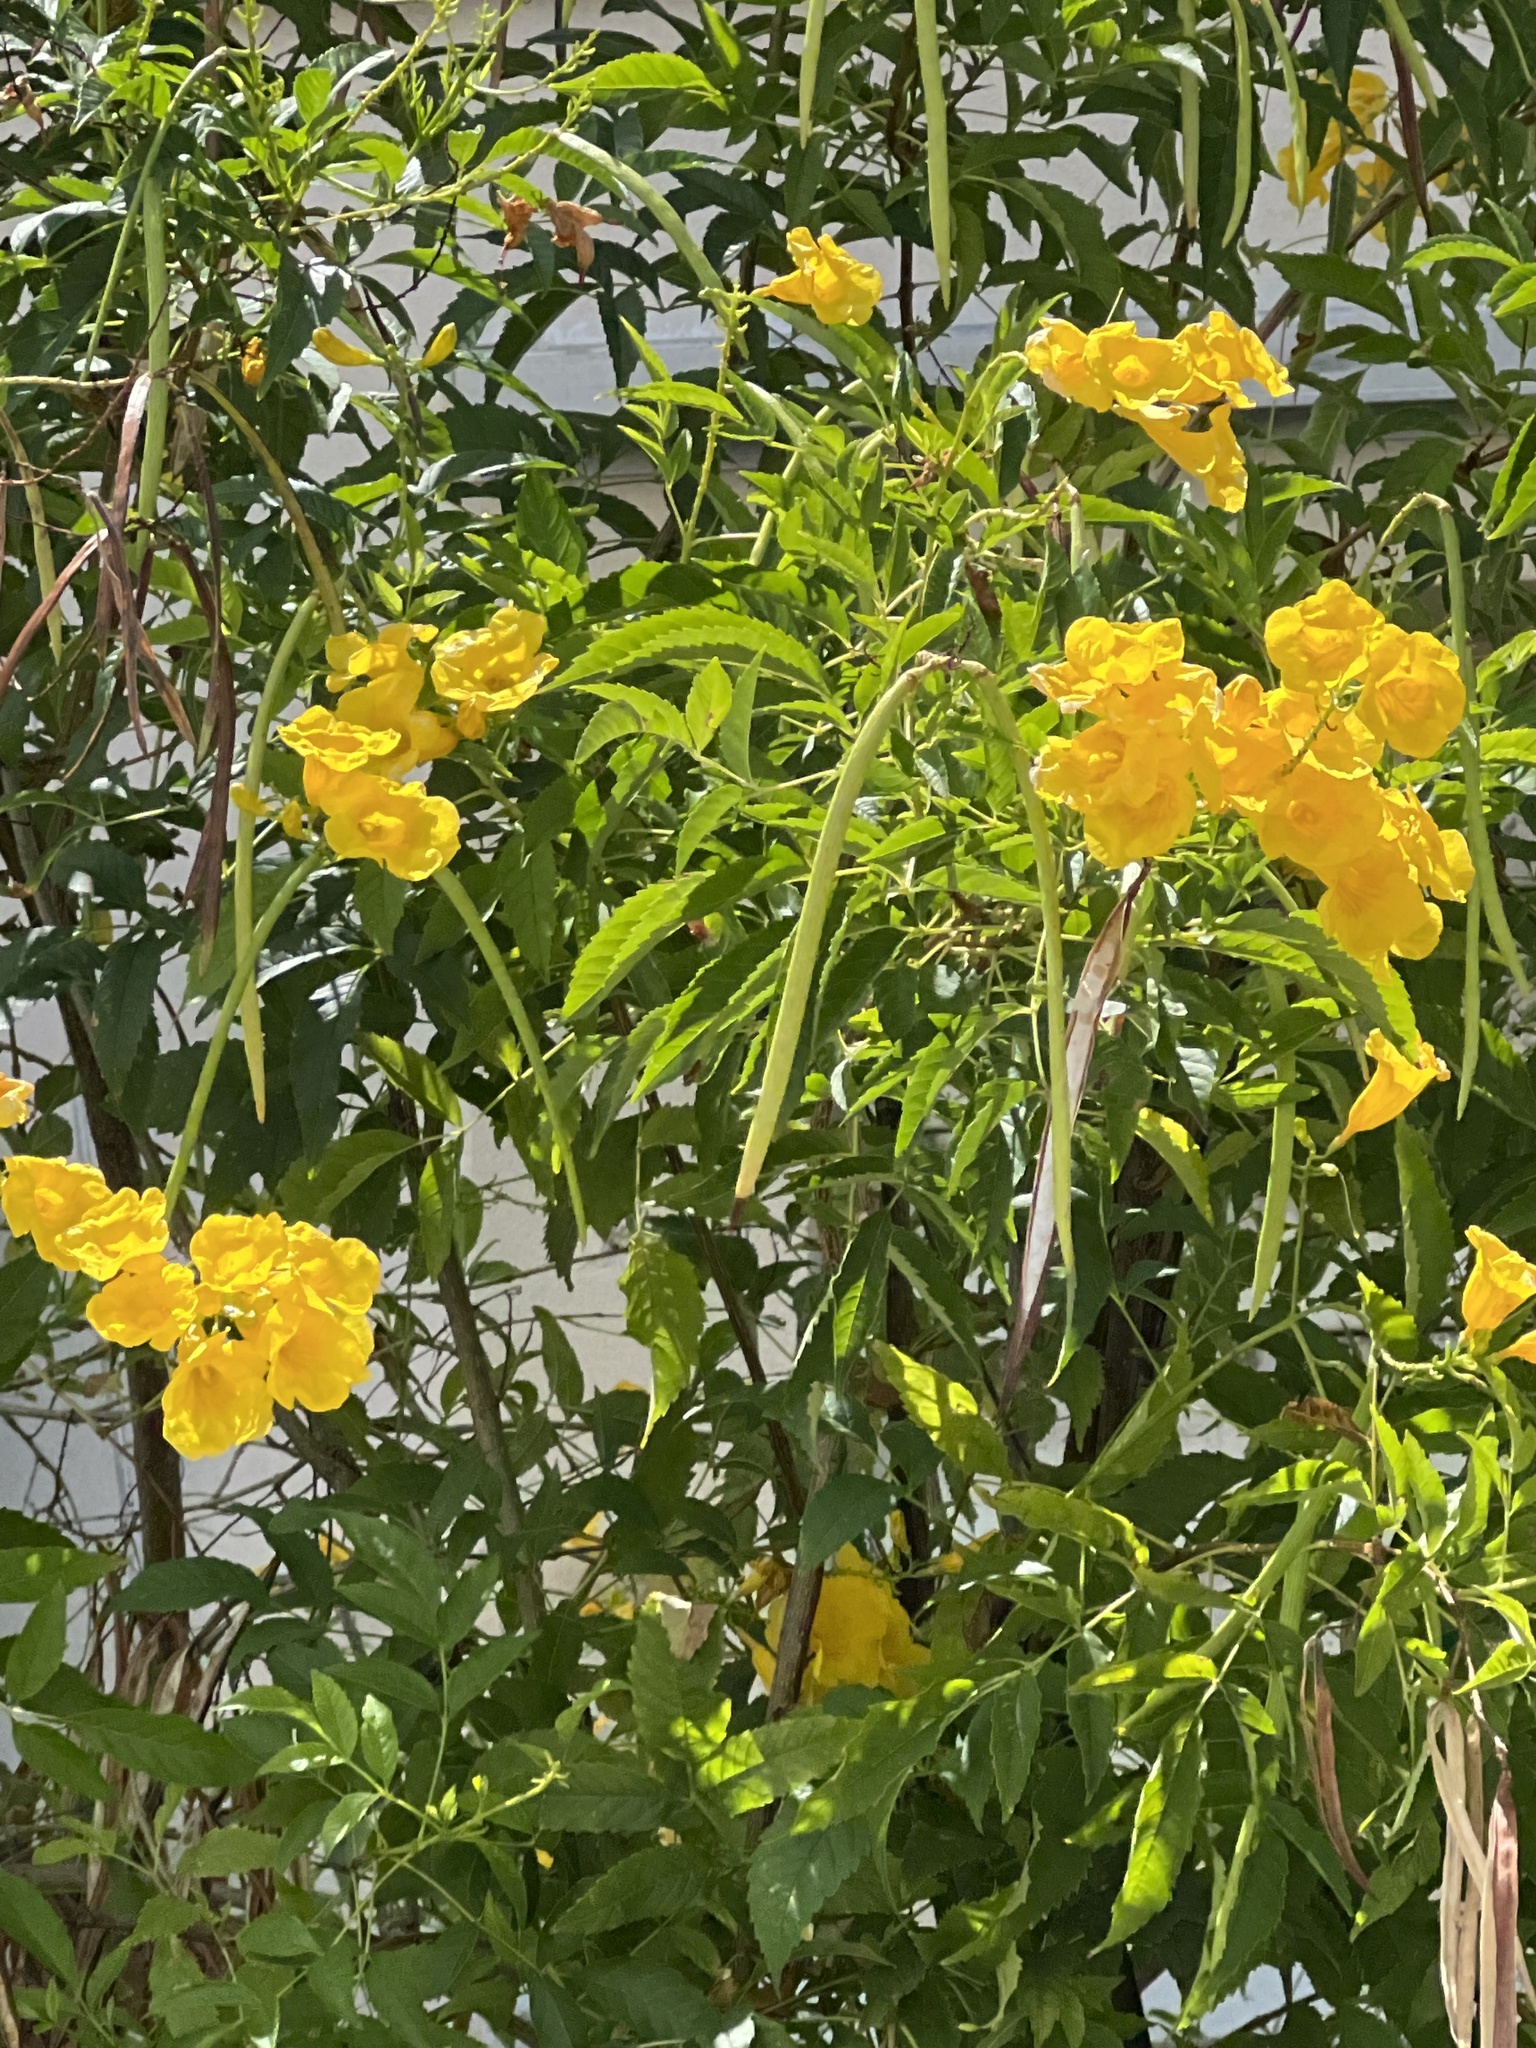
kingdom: Plantae
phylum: Tracheophyta
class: Magnoliopsida
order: Lamiales
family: Bignoniaceae
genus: Tecoma
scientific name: Tecoma stans
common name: Yellow trumpetbush
